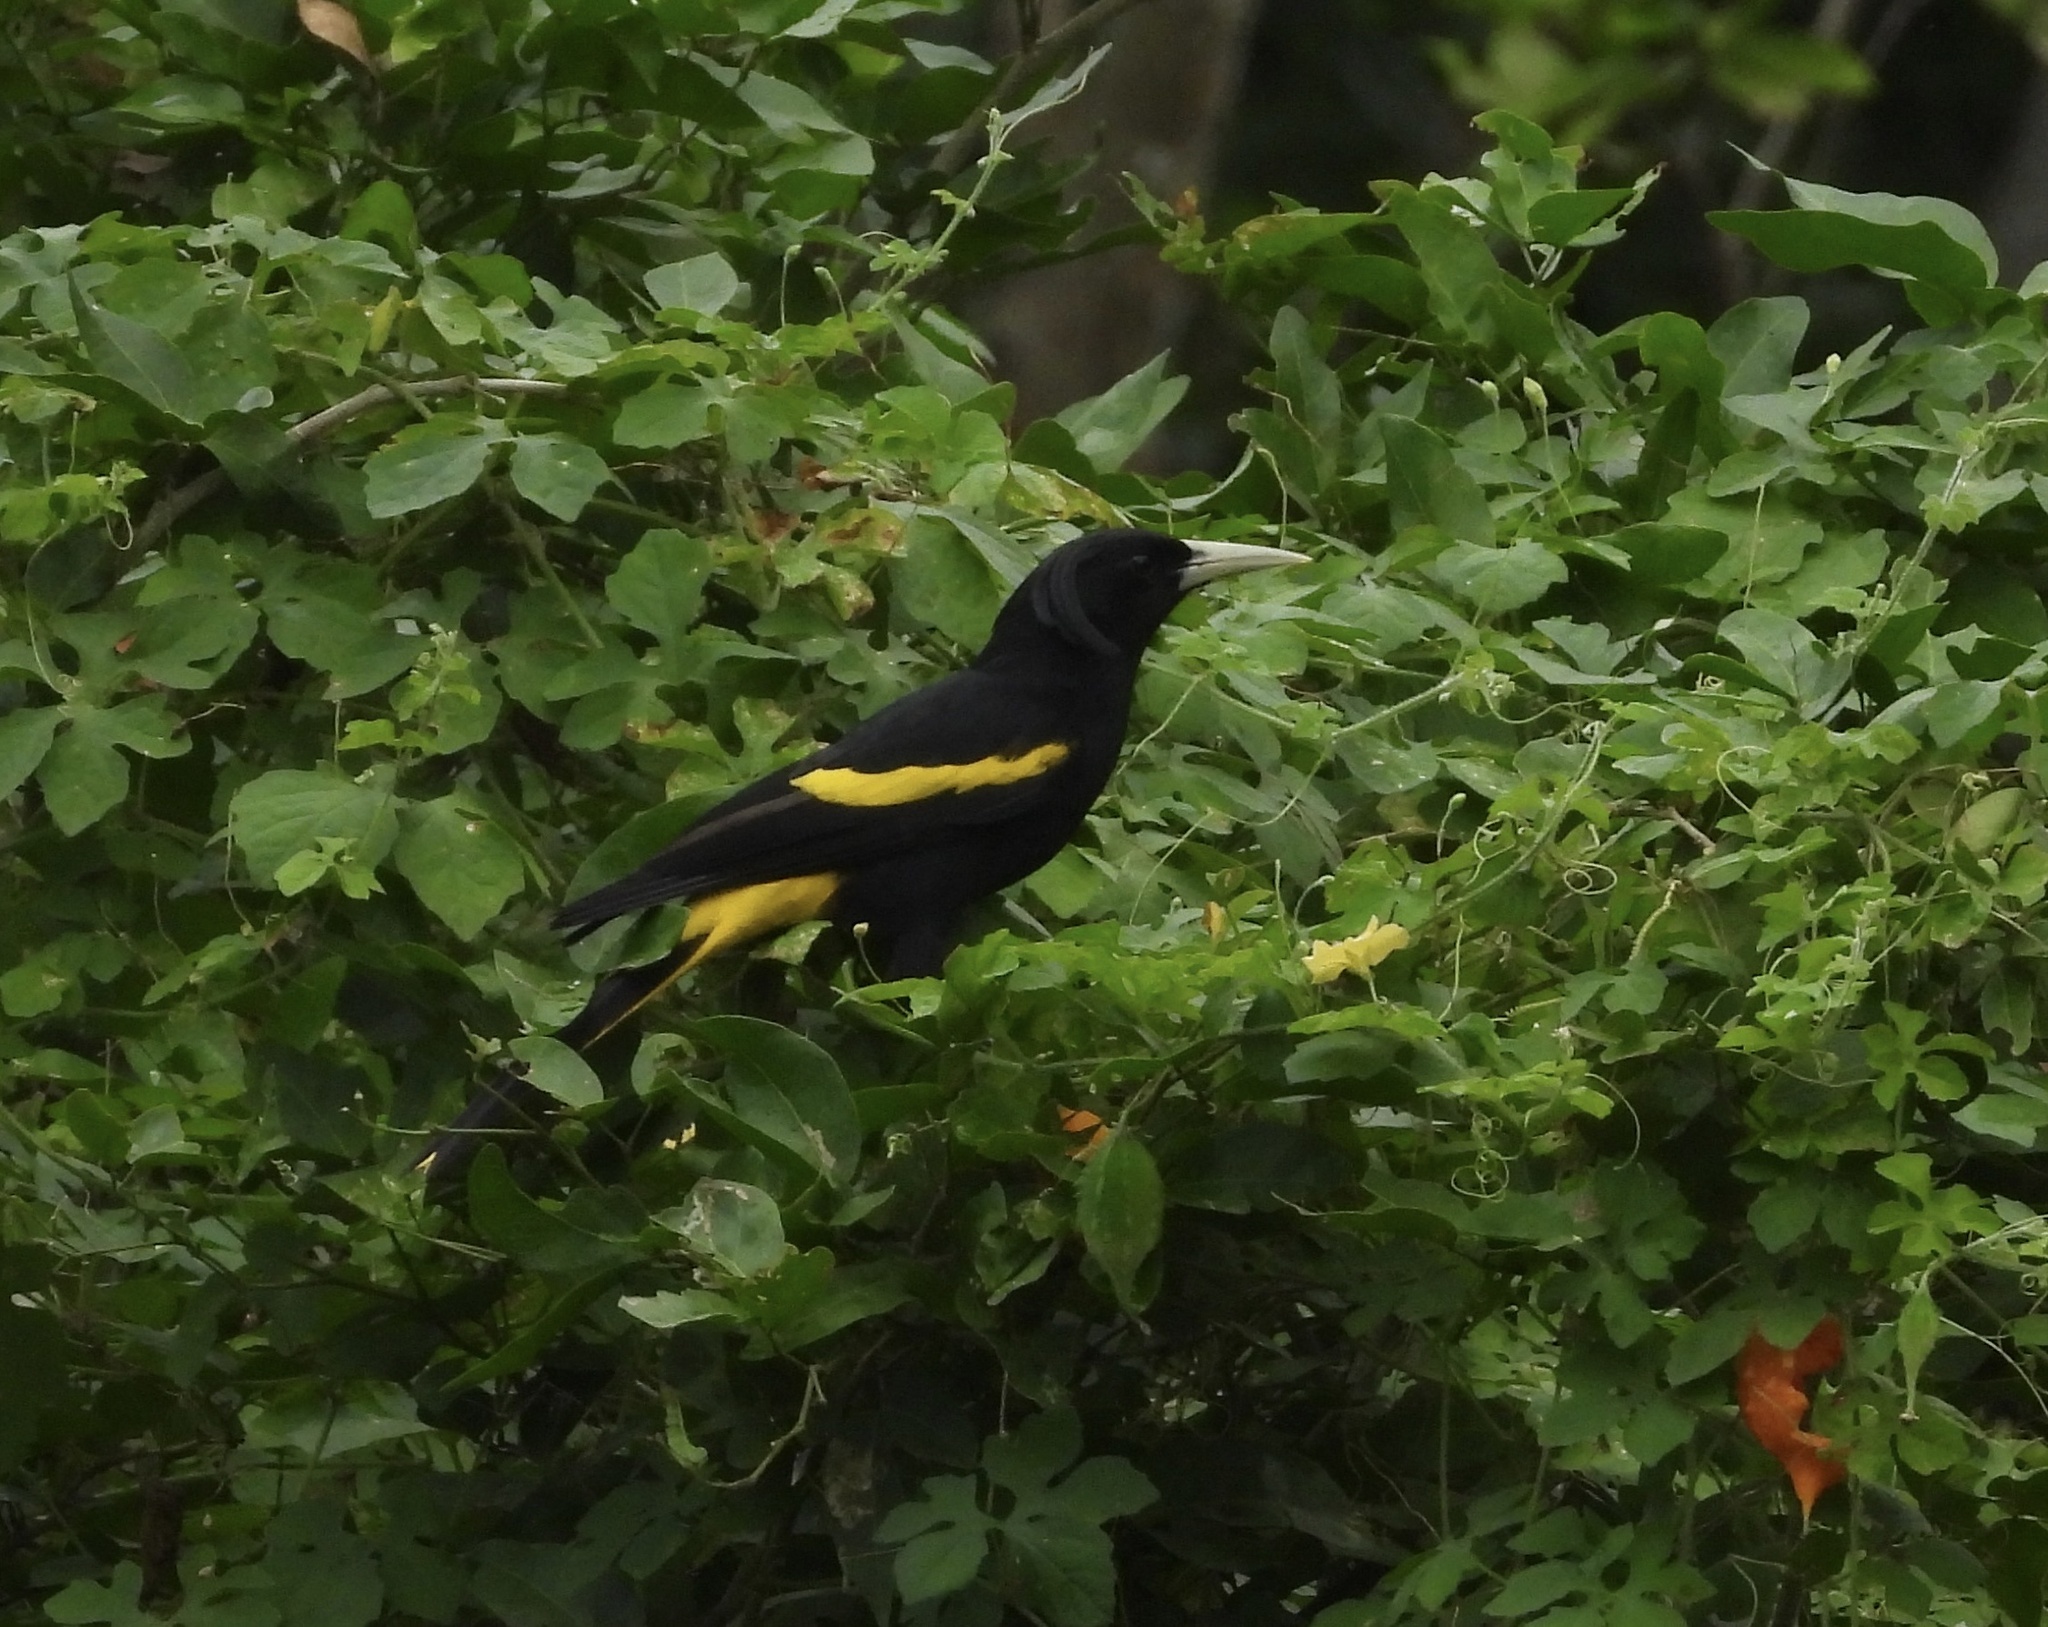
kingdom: Animalia
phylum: Chordata
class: Aves
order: Passeriformes
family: Icteridae
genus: Cacicus
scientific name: Cacicus melanicterus
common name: Yellow-winged cacique
